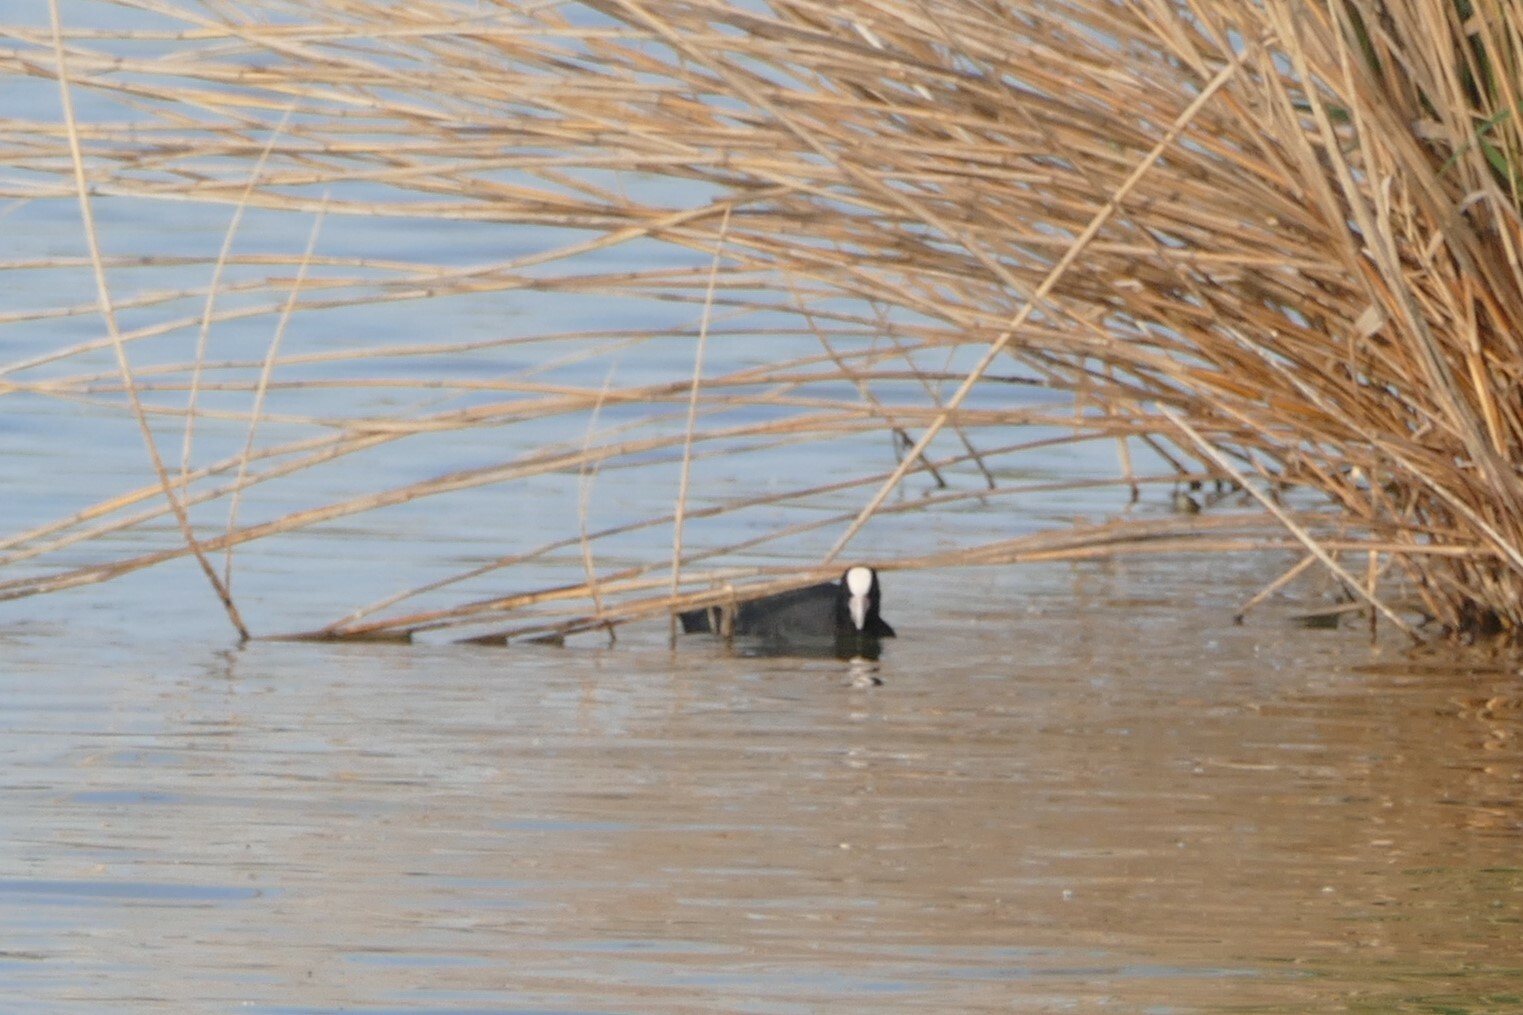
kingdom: Animalia
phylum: Chordata
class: Aves
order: Gruiformes
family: Rallidae
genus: Fulica
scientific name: Fulica atra
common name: Eurasian coot
